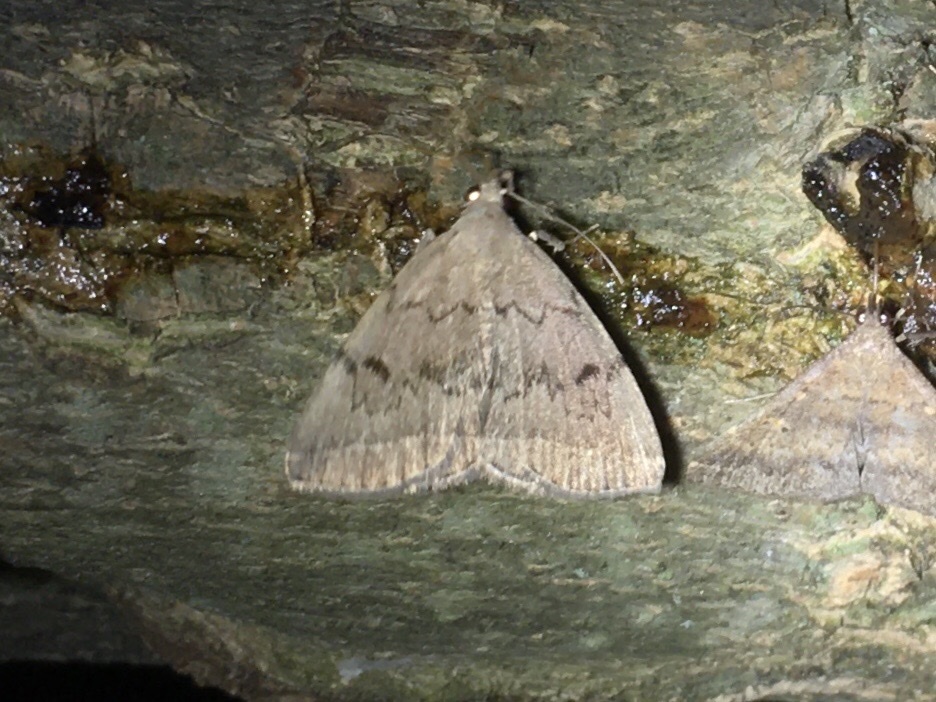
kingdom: Animalia
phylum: Arthropoda
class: Insecta
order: Lepidoptera
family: Erebidae
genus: Zanclognatha
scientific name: Zanclognatha dentata
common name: Toothed fan-foot
